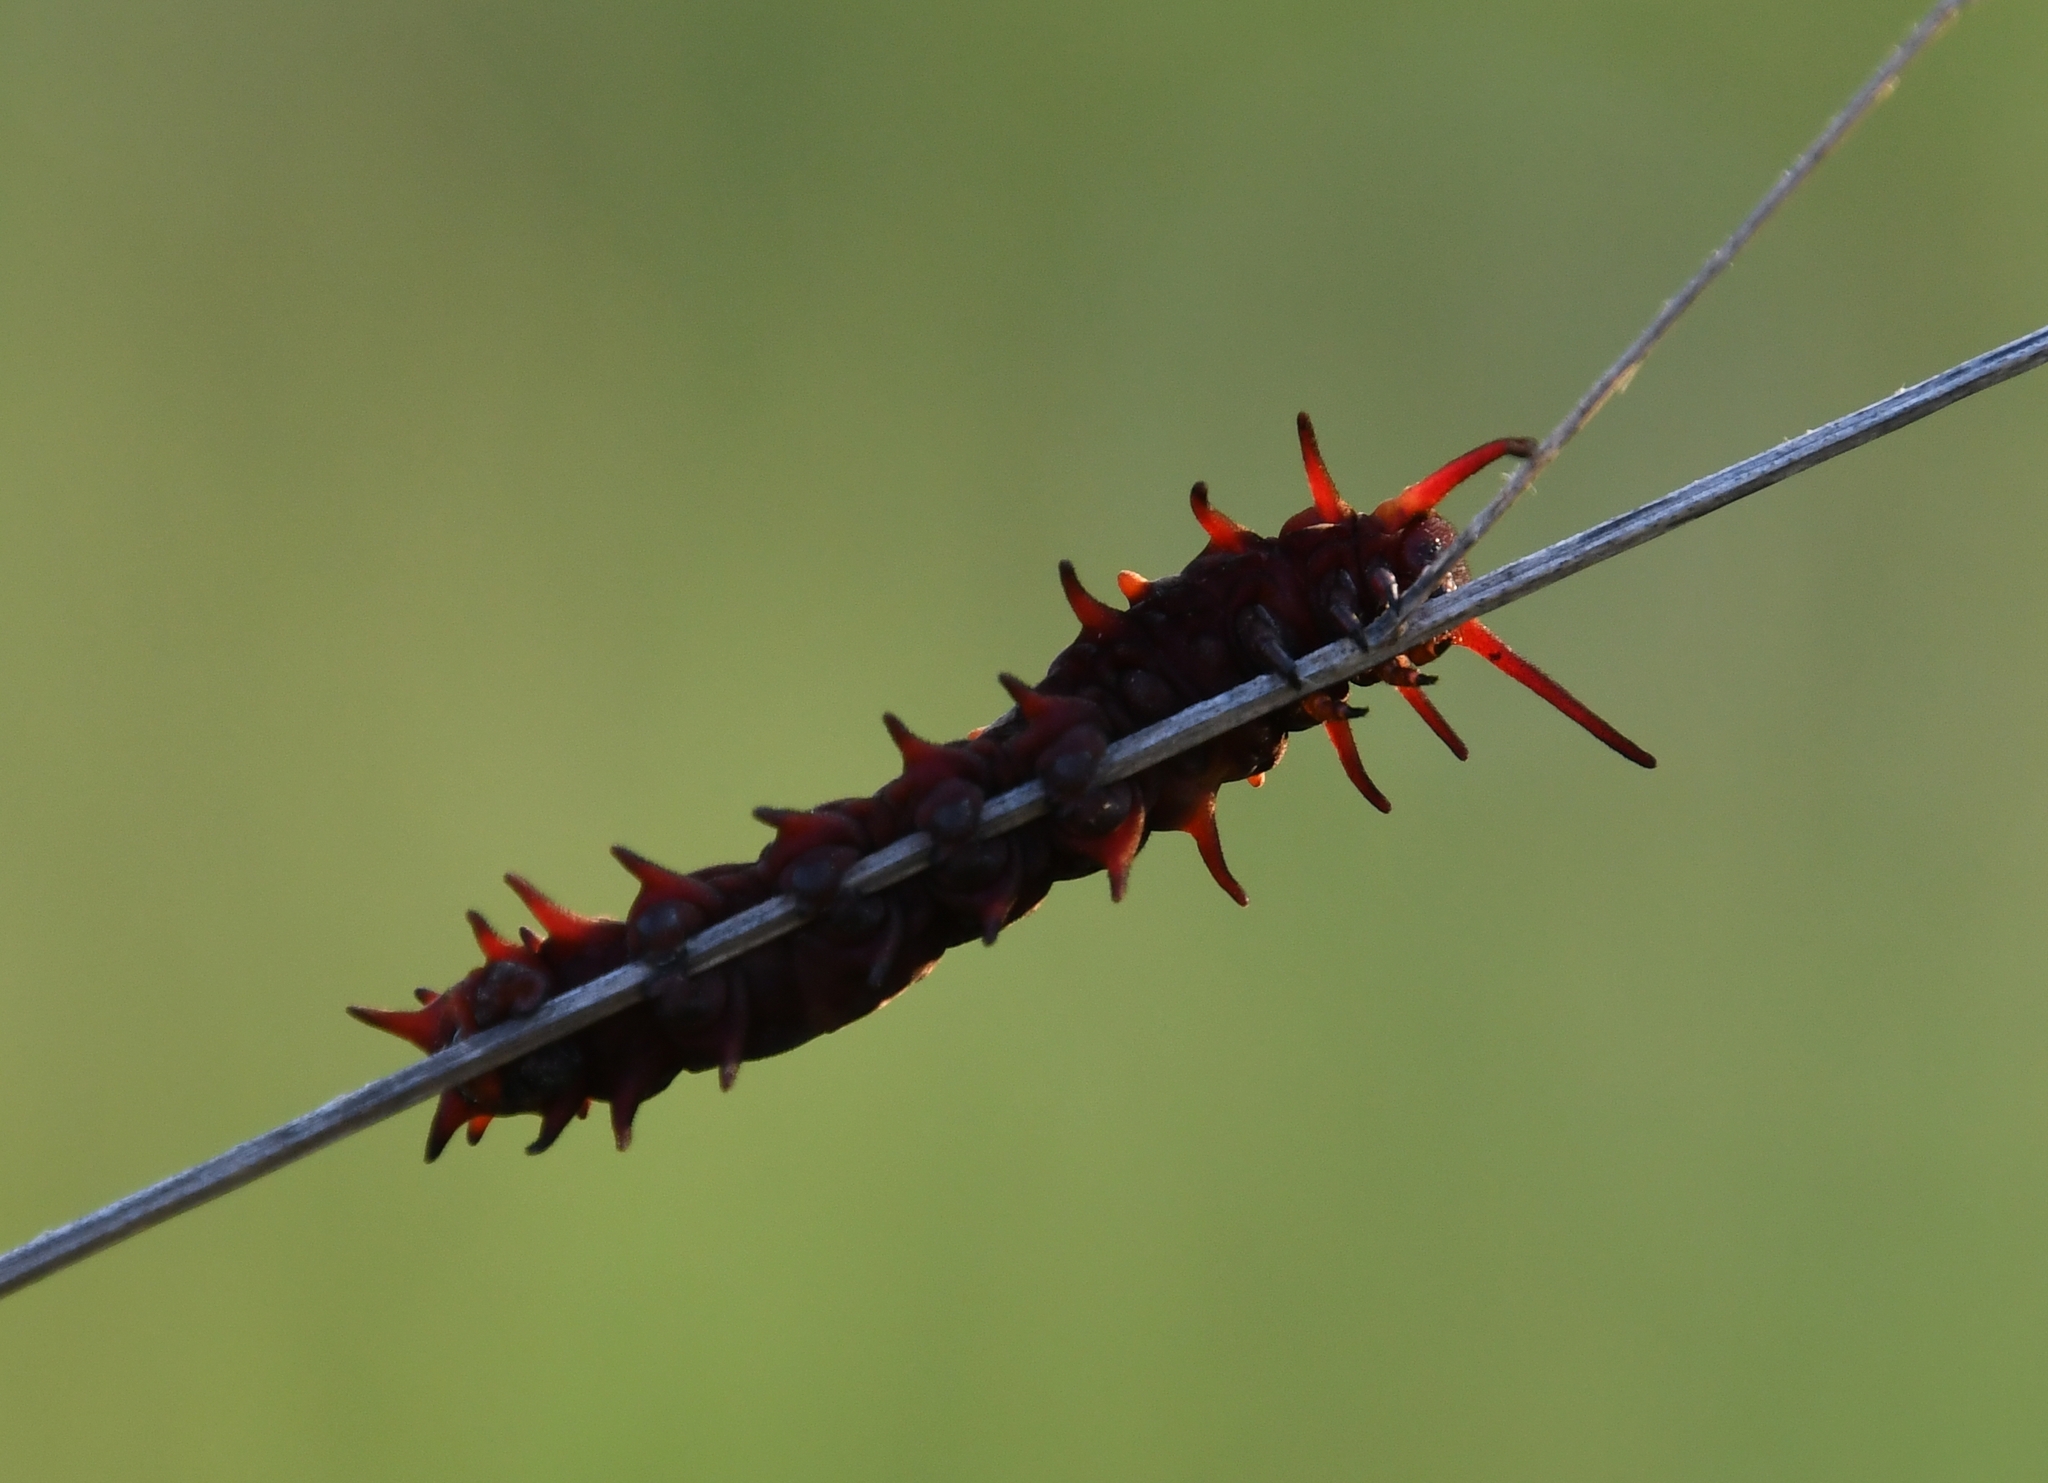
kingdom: Animalia
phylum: Arthropoda
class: Insecta
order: Lepidoptera
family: Papilionidae
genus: Battus
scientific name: Battus philenor
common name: Pipevine swallowtail
